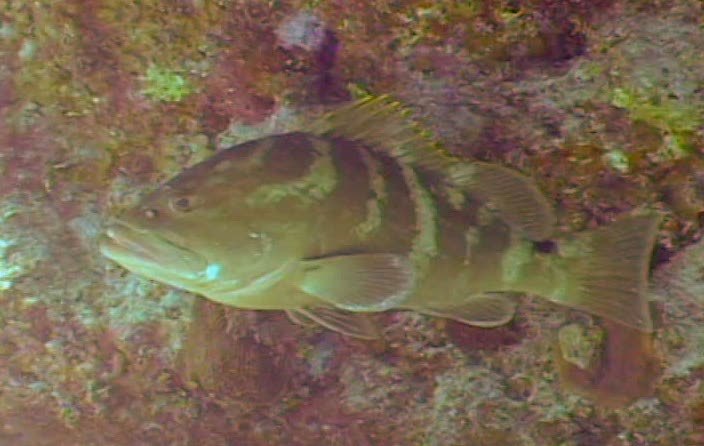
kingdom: Animalia
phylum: Chordata
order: Perciformes
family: Serranidae
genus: Epinephelus
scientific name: Epinephelus striatus
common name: Nassau grouper
